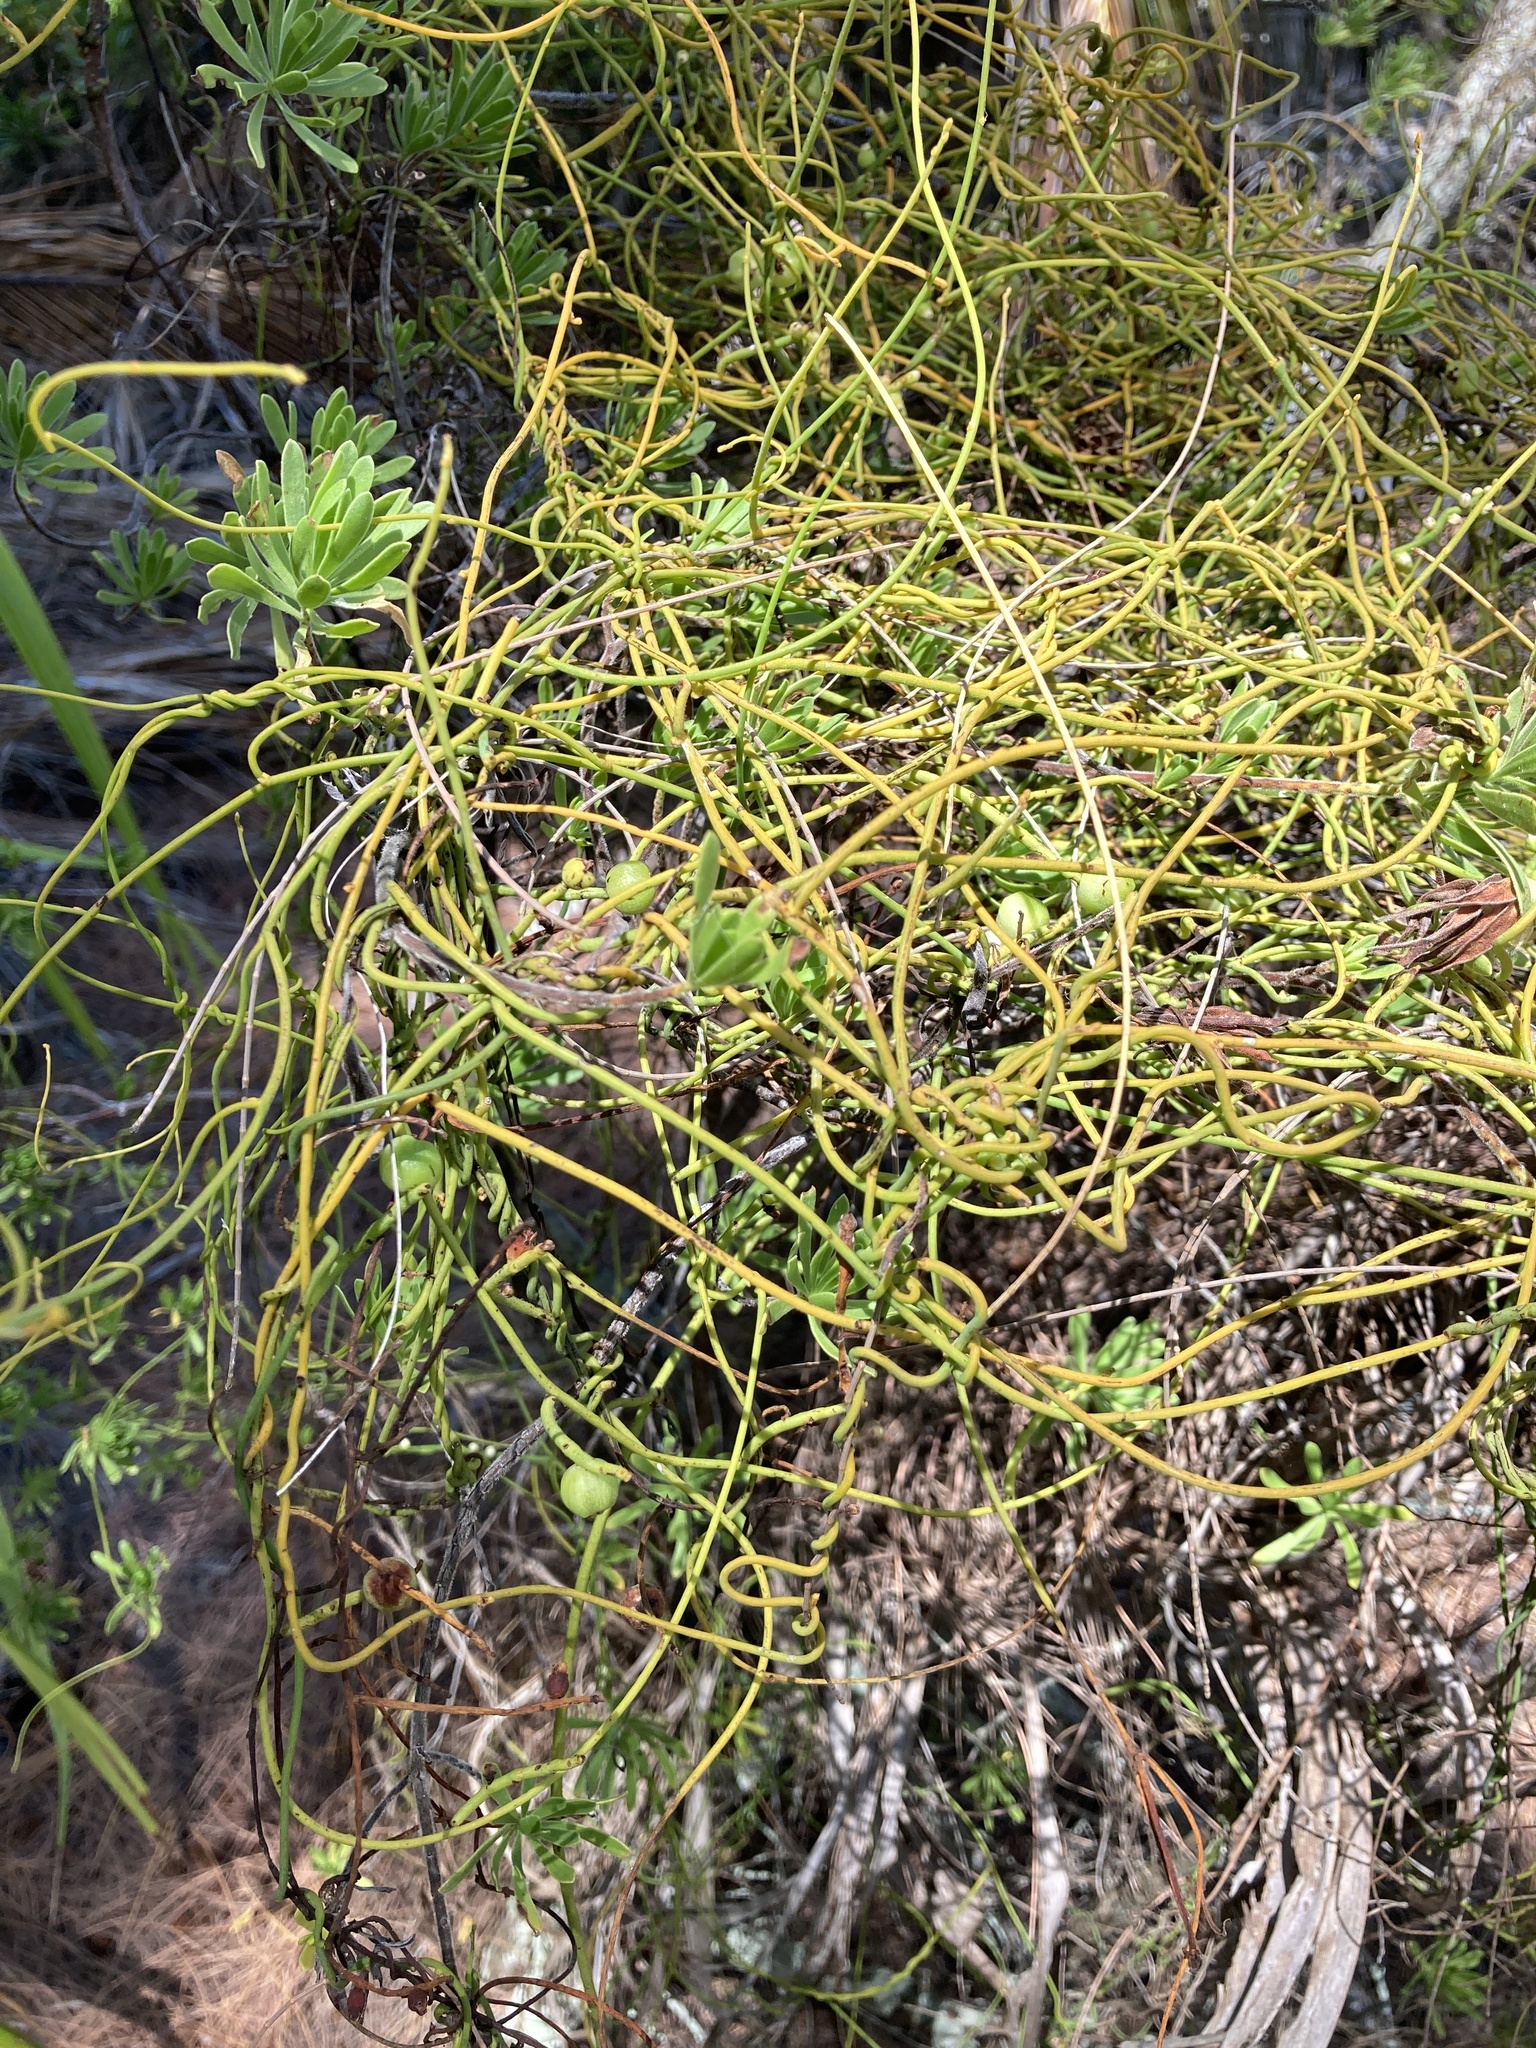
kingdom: Plantae
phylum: Tracheophyta
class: Magnoliopsida
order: Laurales
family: Lauraceae
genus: Cassytha
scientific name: Cassytha filiformis
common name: Dodder-laurel
